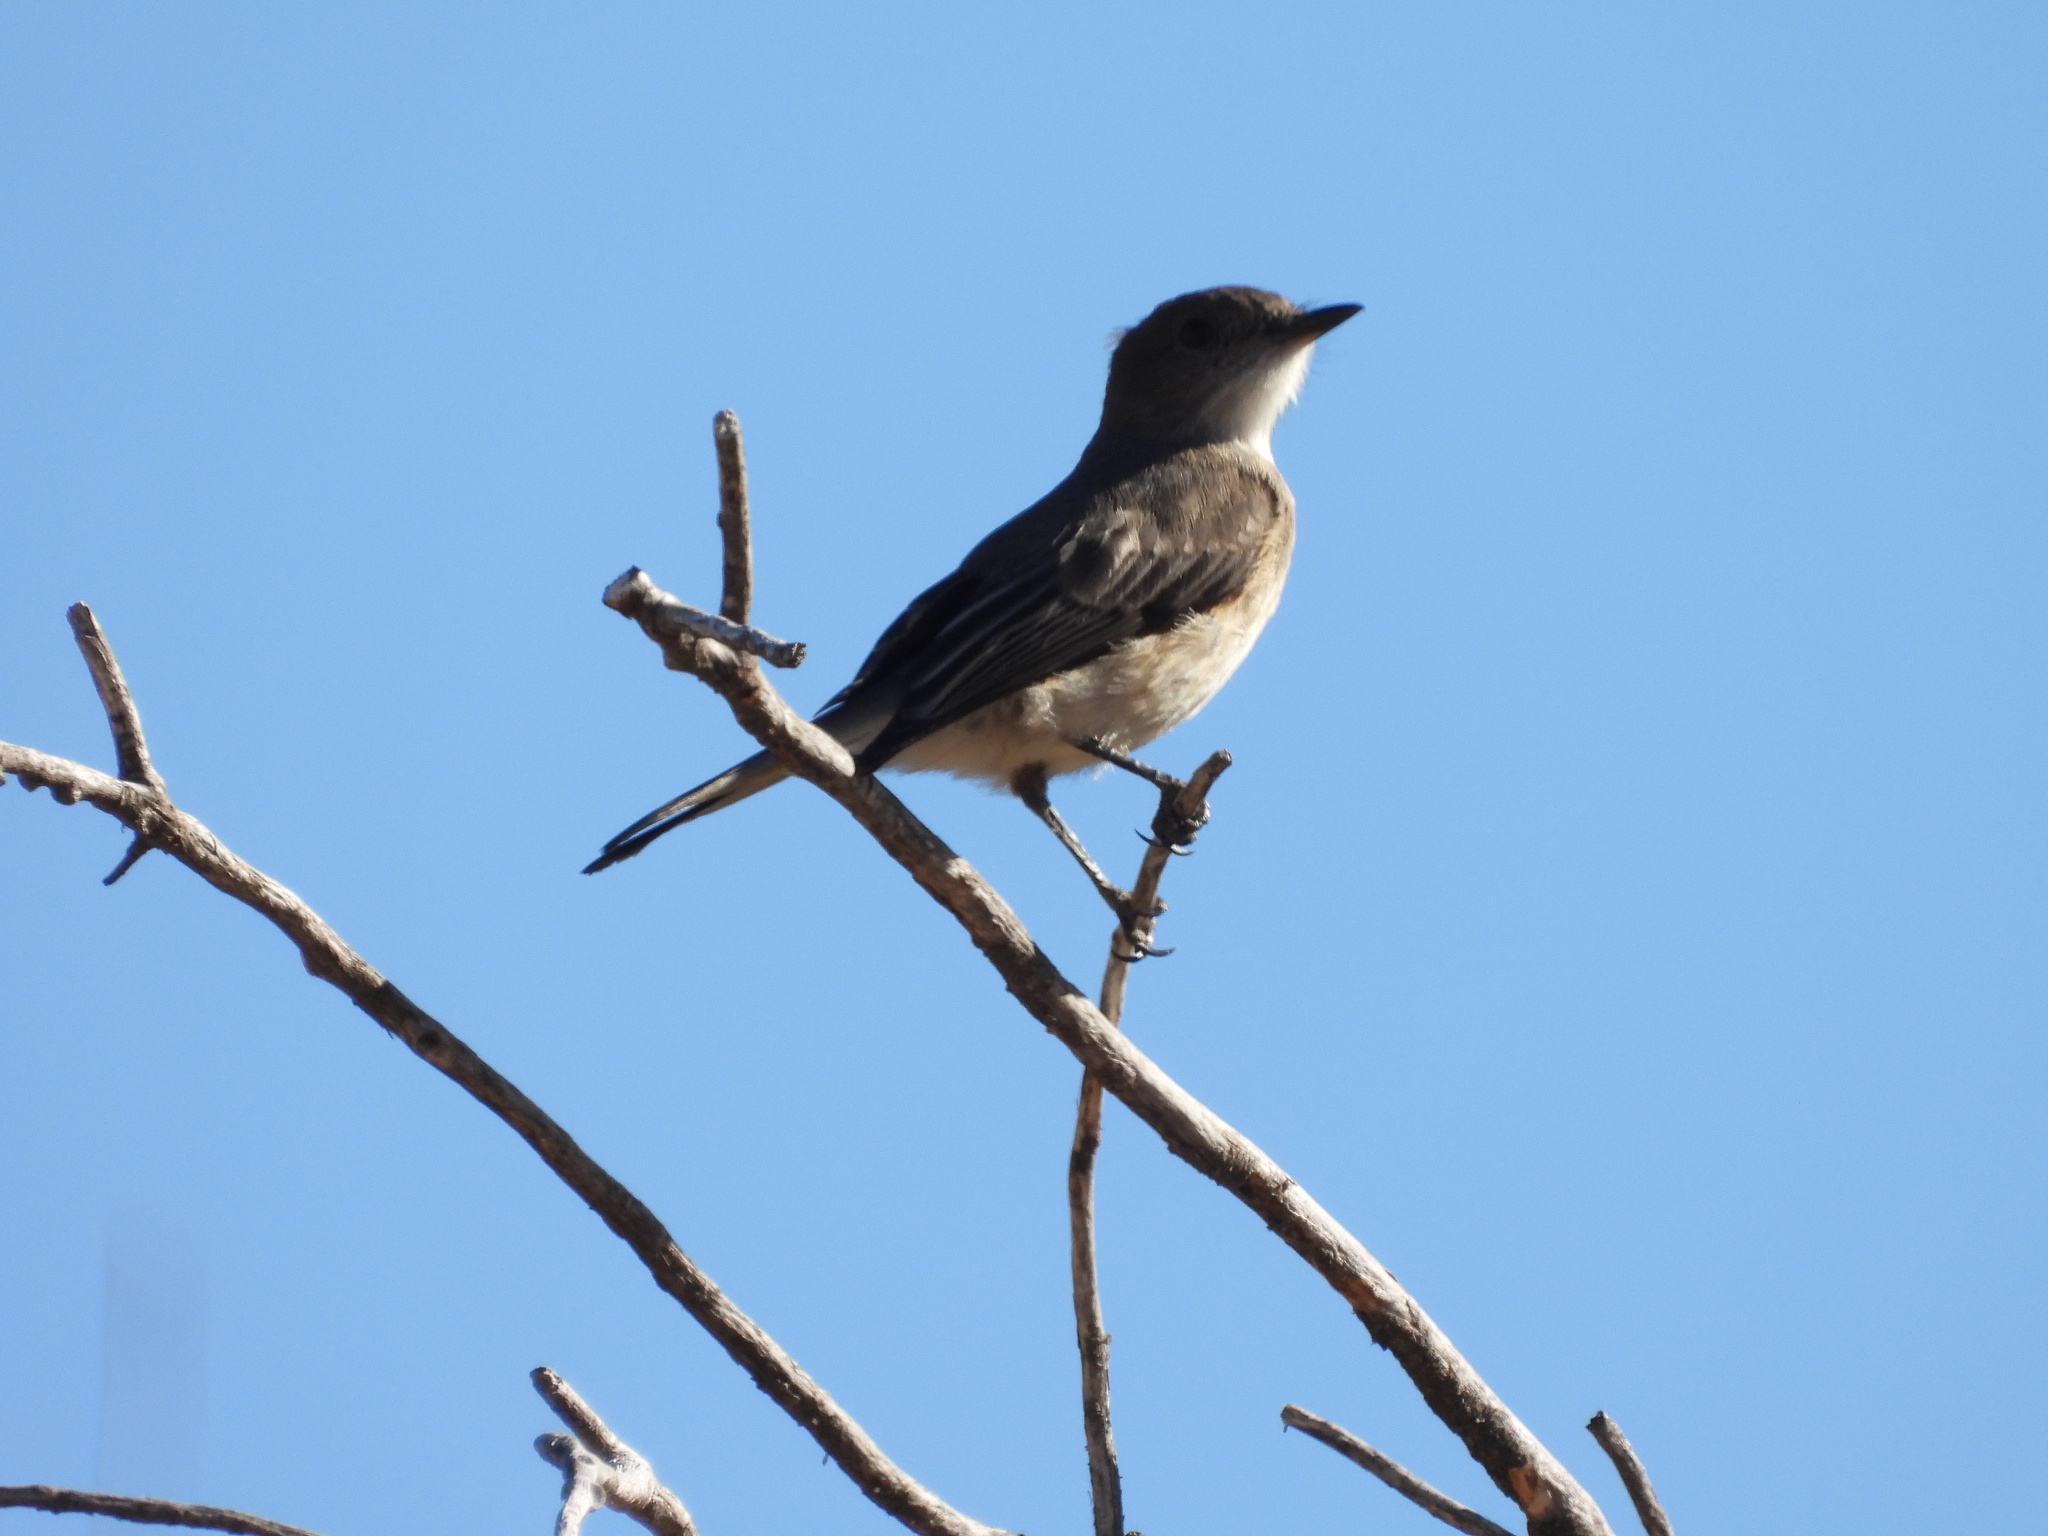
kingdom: Animalia
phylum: Chordata
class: Aves
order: Passeriformes
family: Tyrannidae
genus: Xolmis
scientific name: Xolmis pyrope
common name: Fire-eyed diucon
